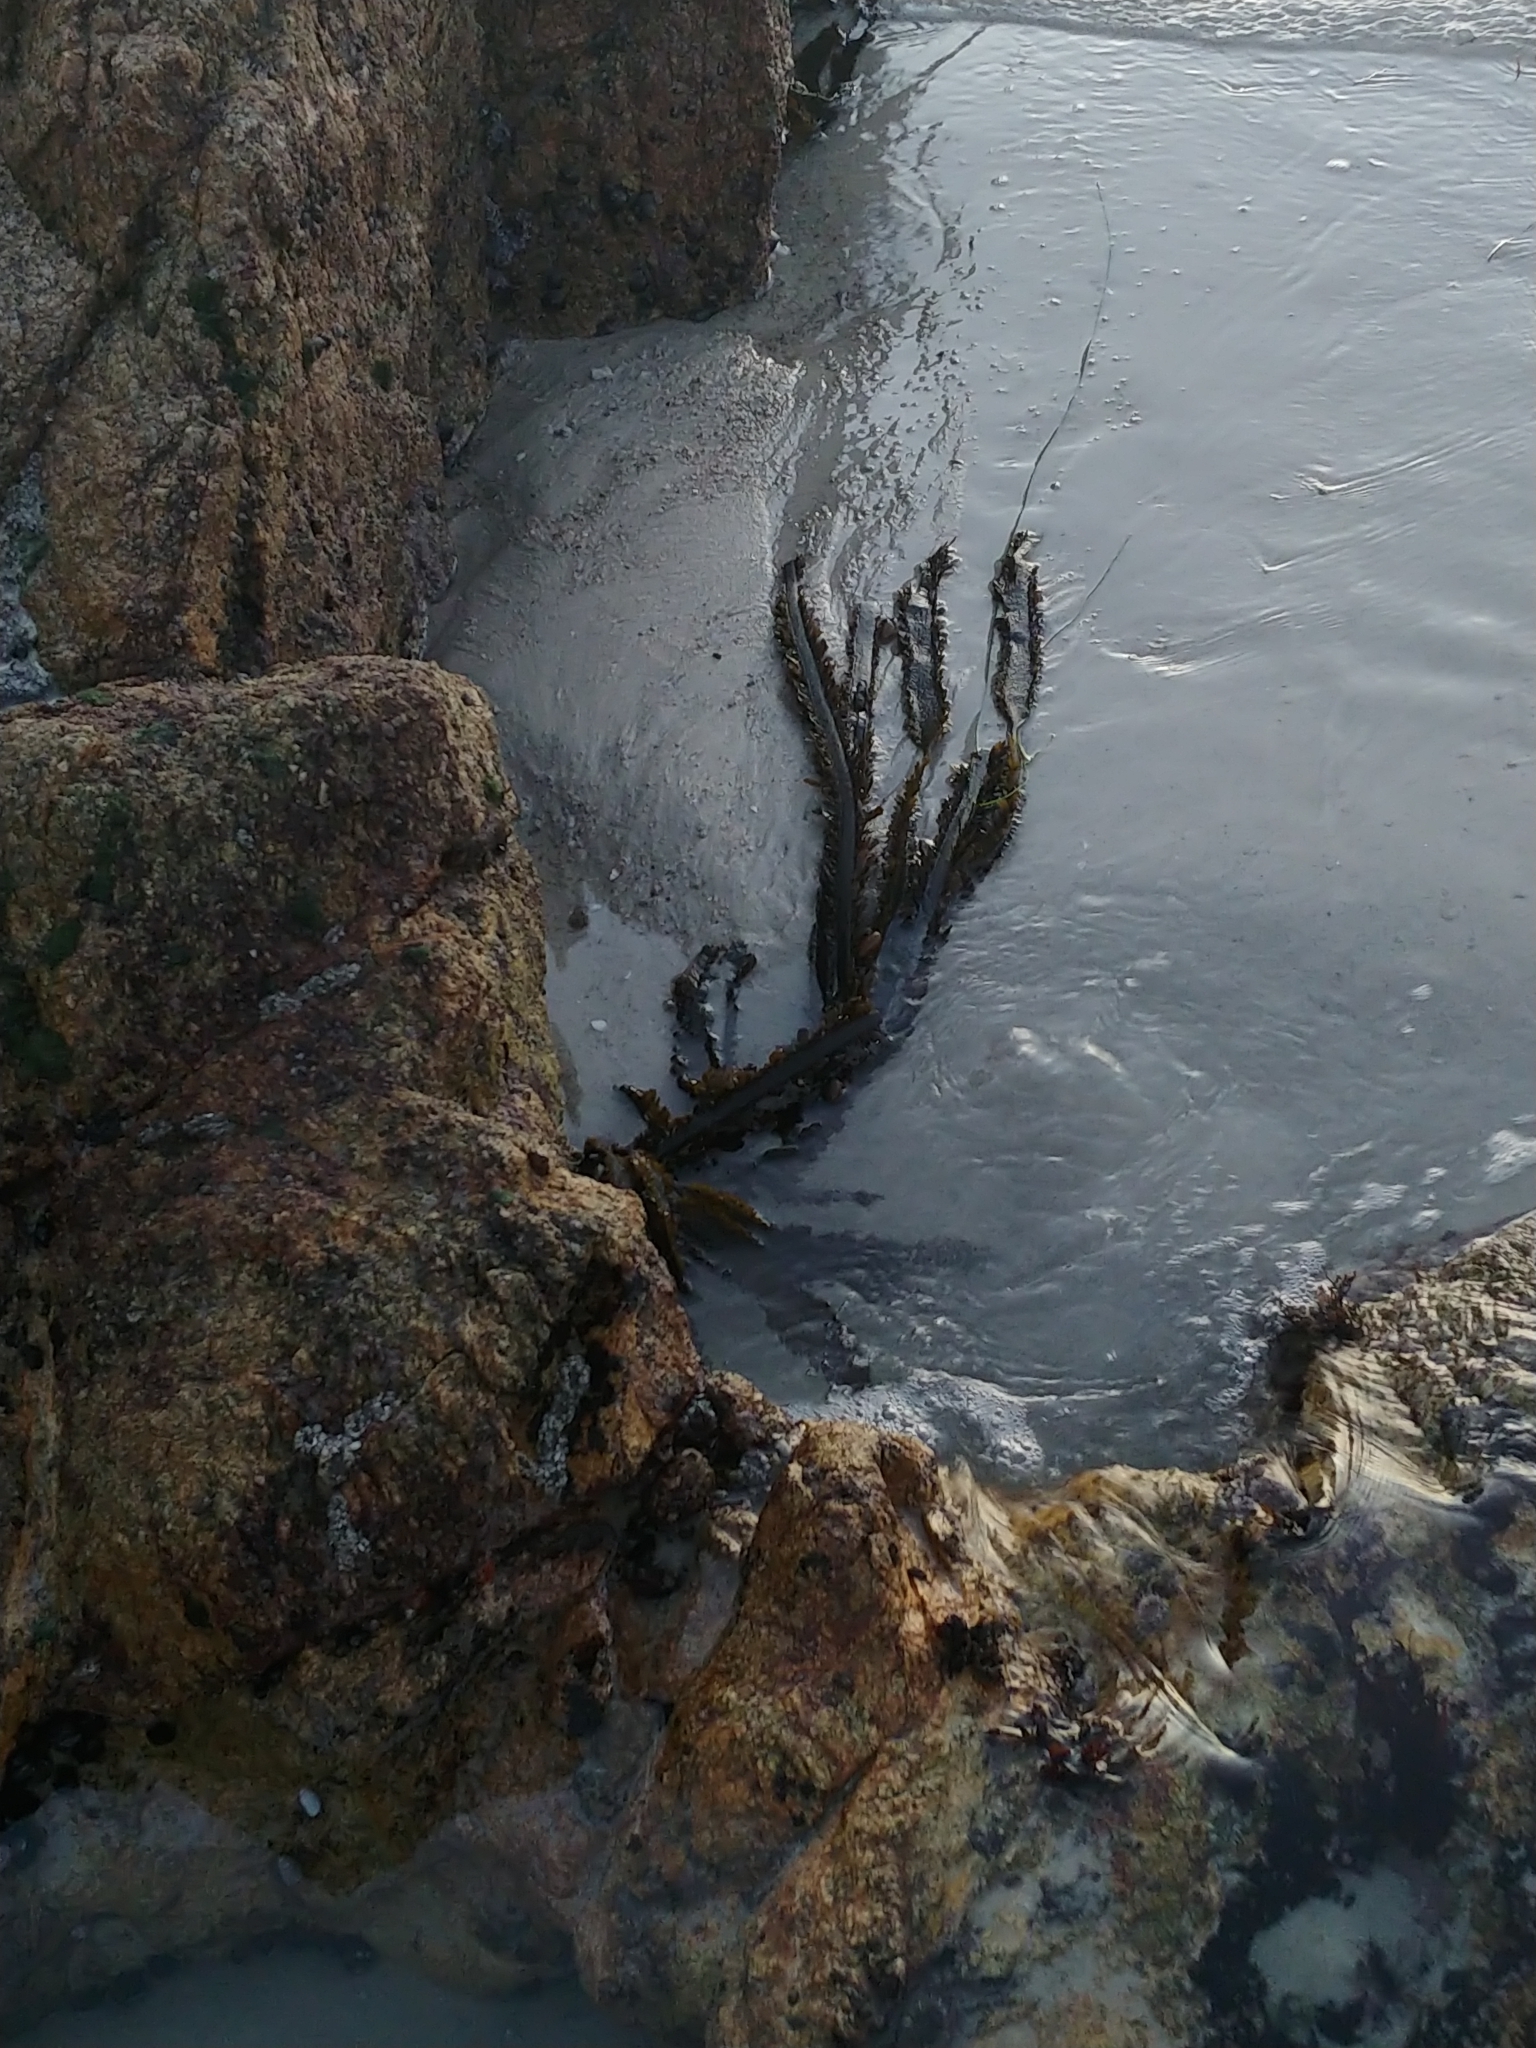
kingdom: Chromista
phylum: Ochrophyta
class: Phaeophyceae
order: Laminariales
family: Lessoniaceae
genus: Egregia
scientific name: Egregia menziesii
